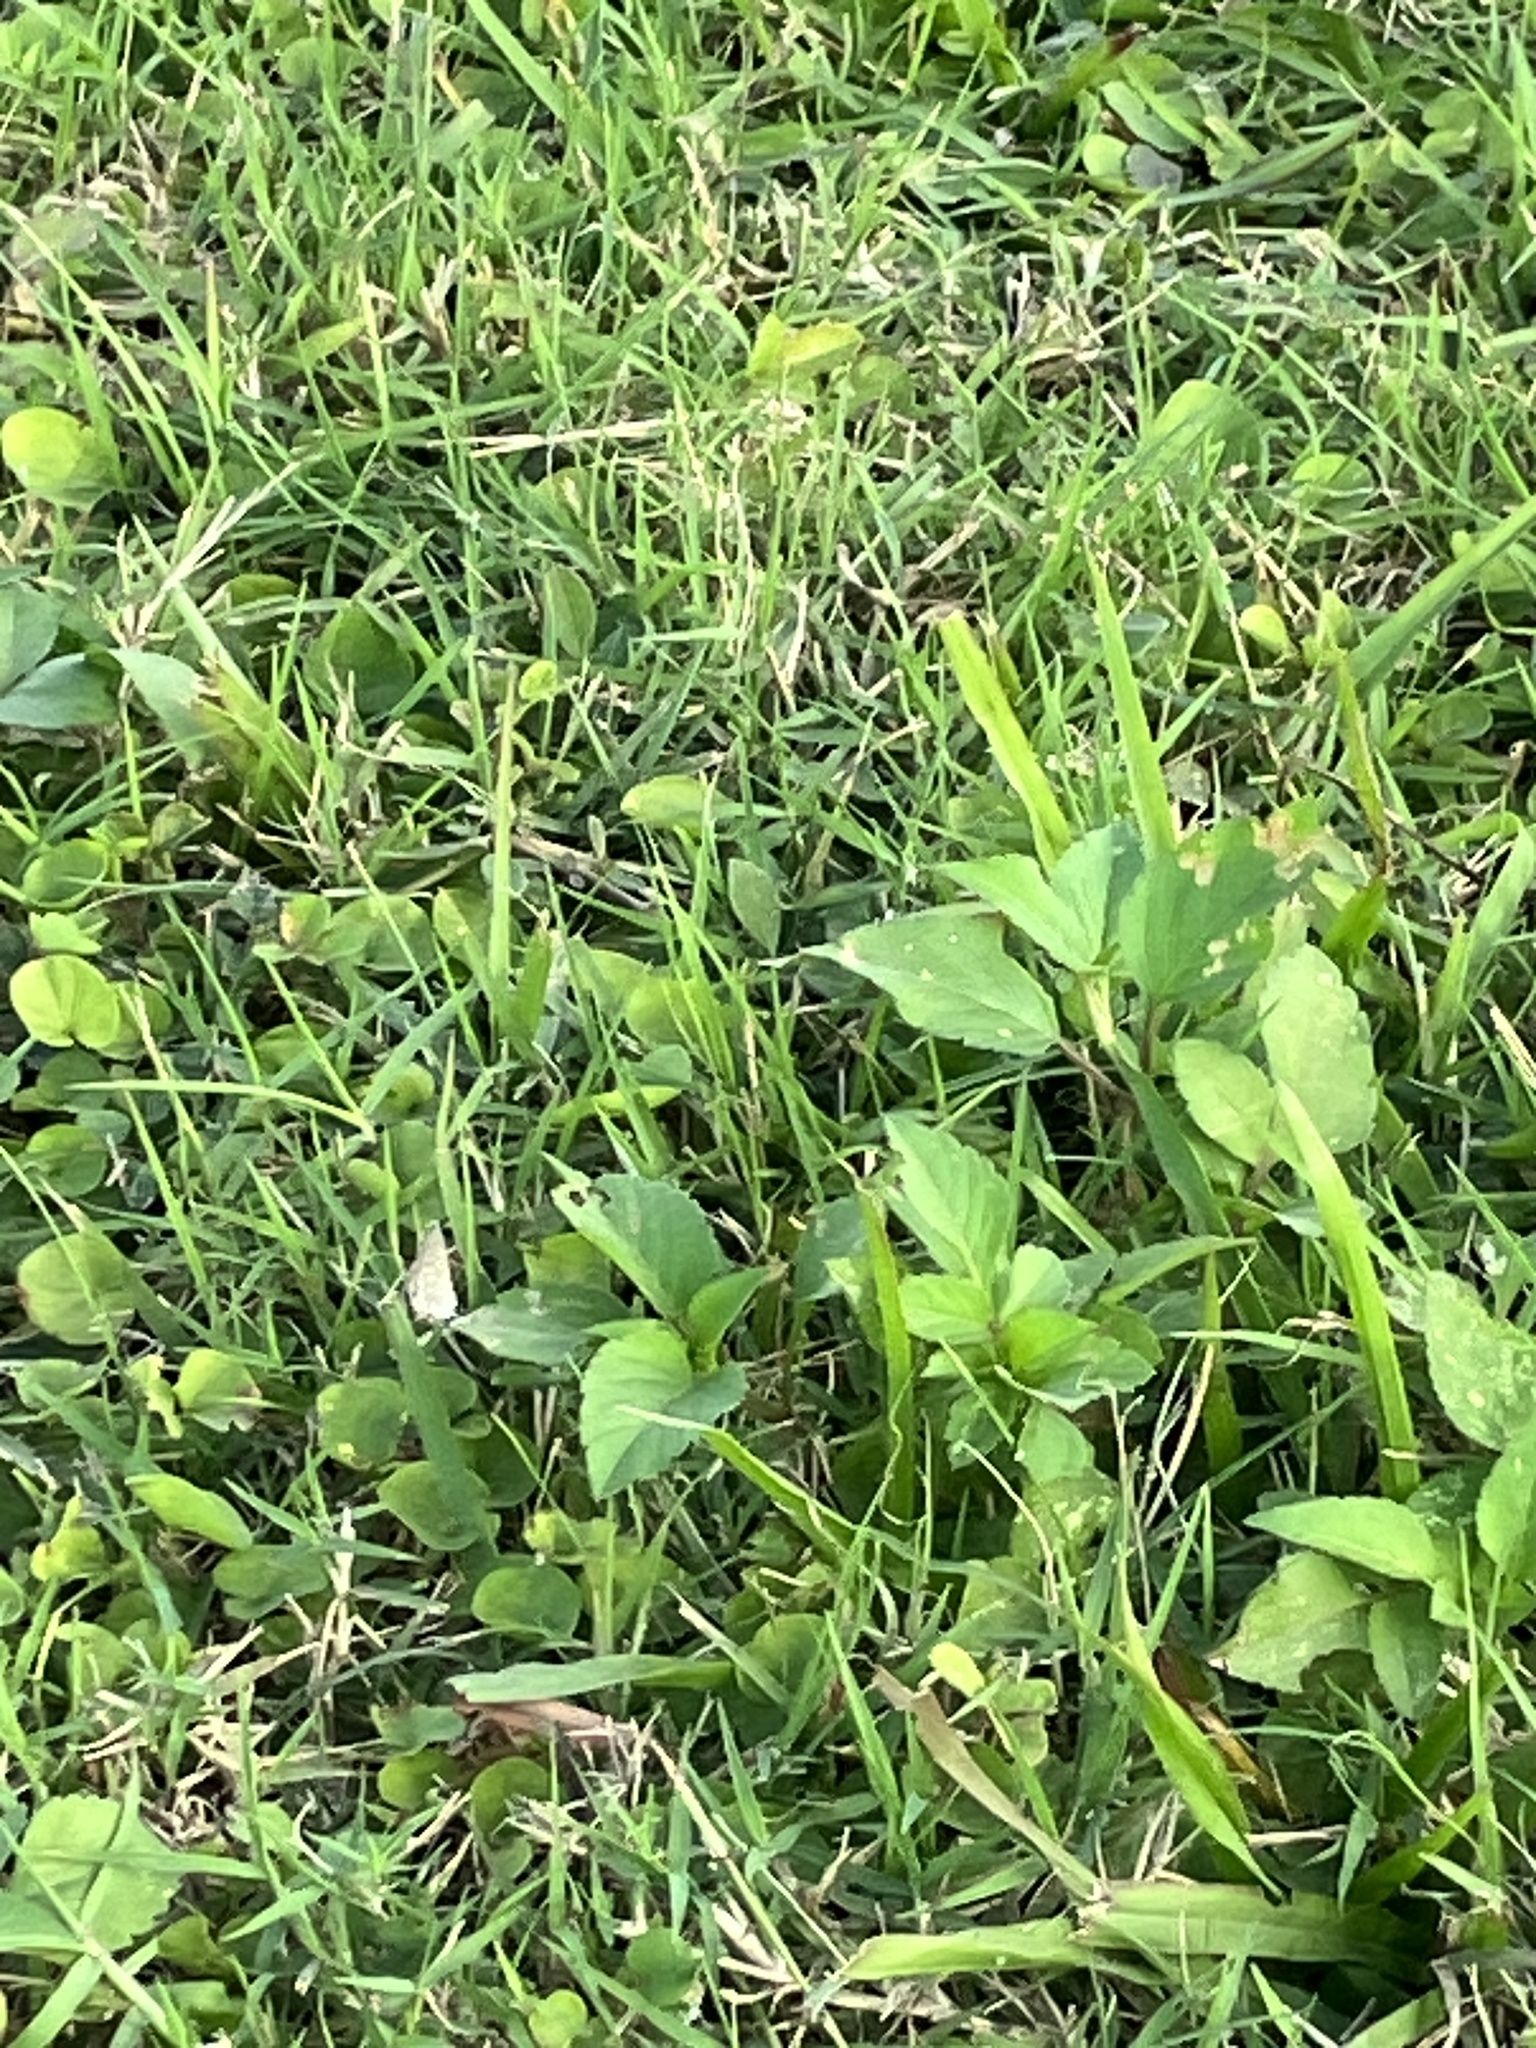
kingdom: Animalia
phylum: Arthropoda
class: Insecta
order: Lepidoptera
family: Lycaenidae
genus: Hemiargus
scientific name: Hemiargus ceraunus
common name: Ceraunus blue
